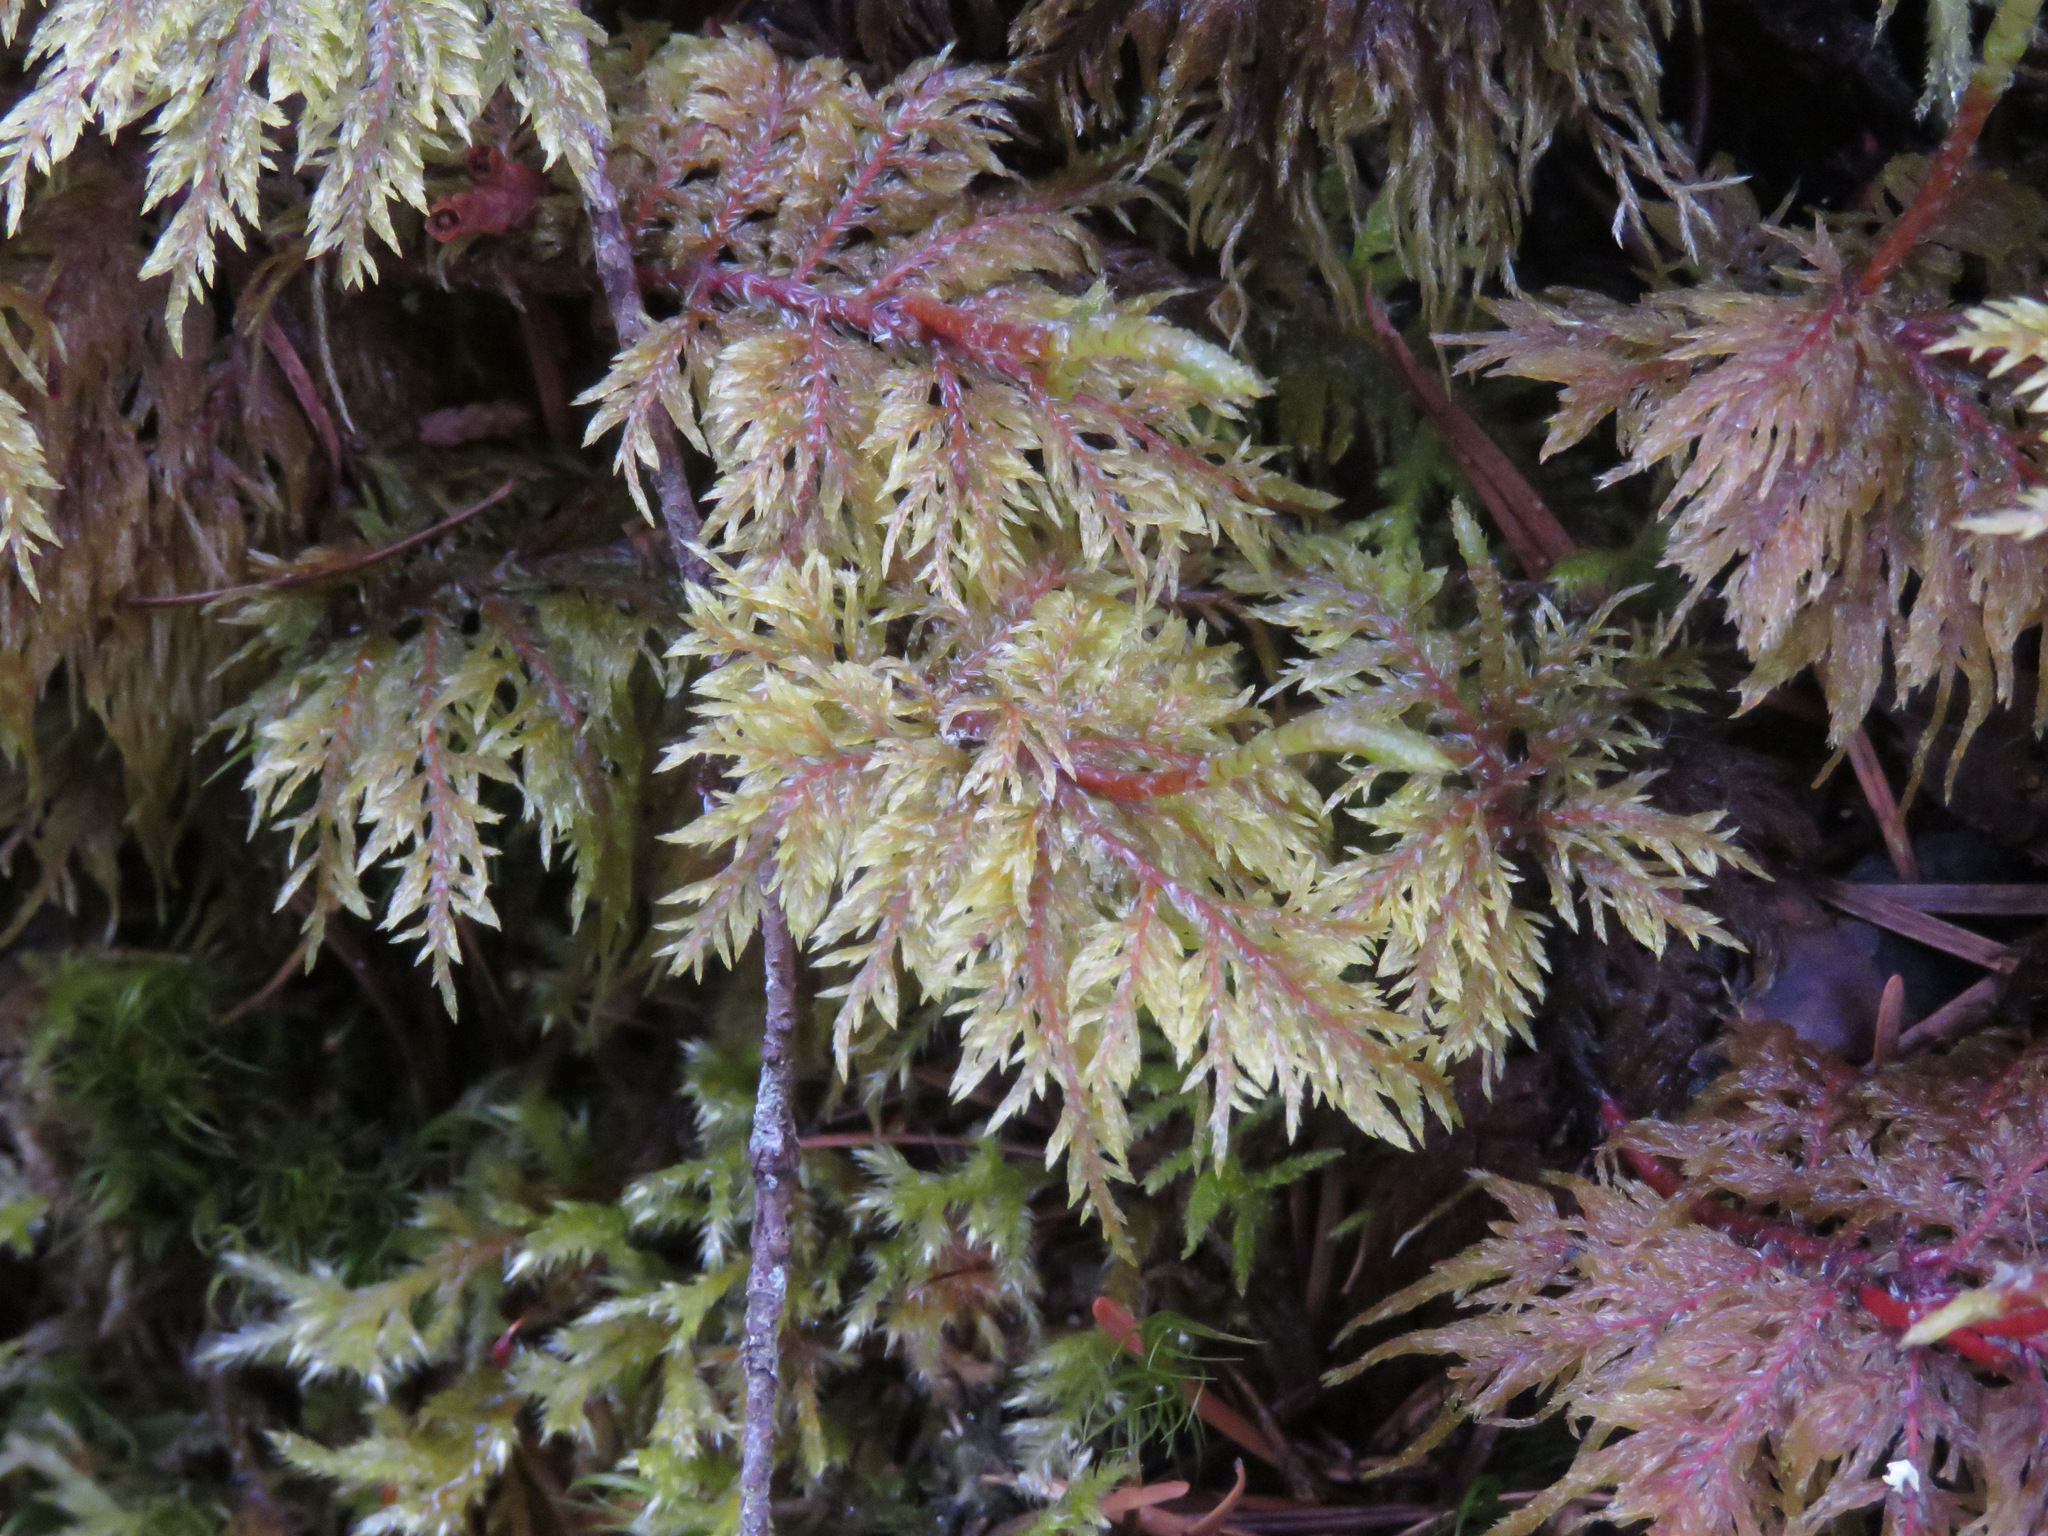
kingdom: Plantae
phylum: Bryophyta
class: Bryopsida
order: Hypnales
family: Hylocomiaceae
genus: Hylocomium
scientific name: Hylocomium splendens
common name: Stairstep moss
